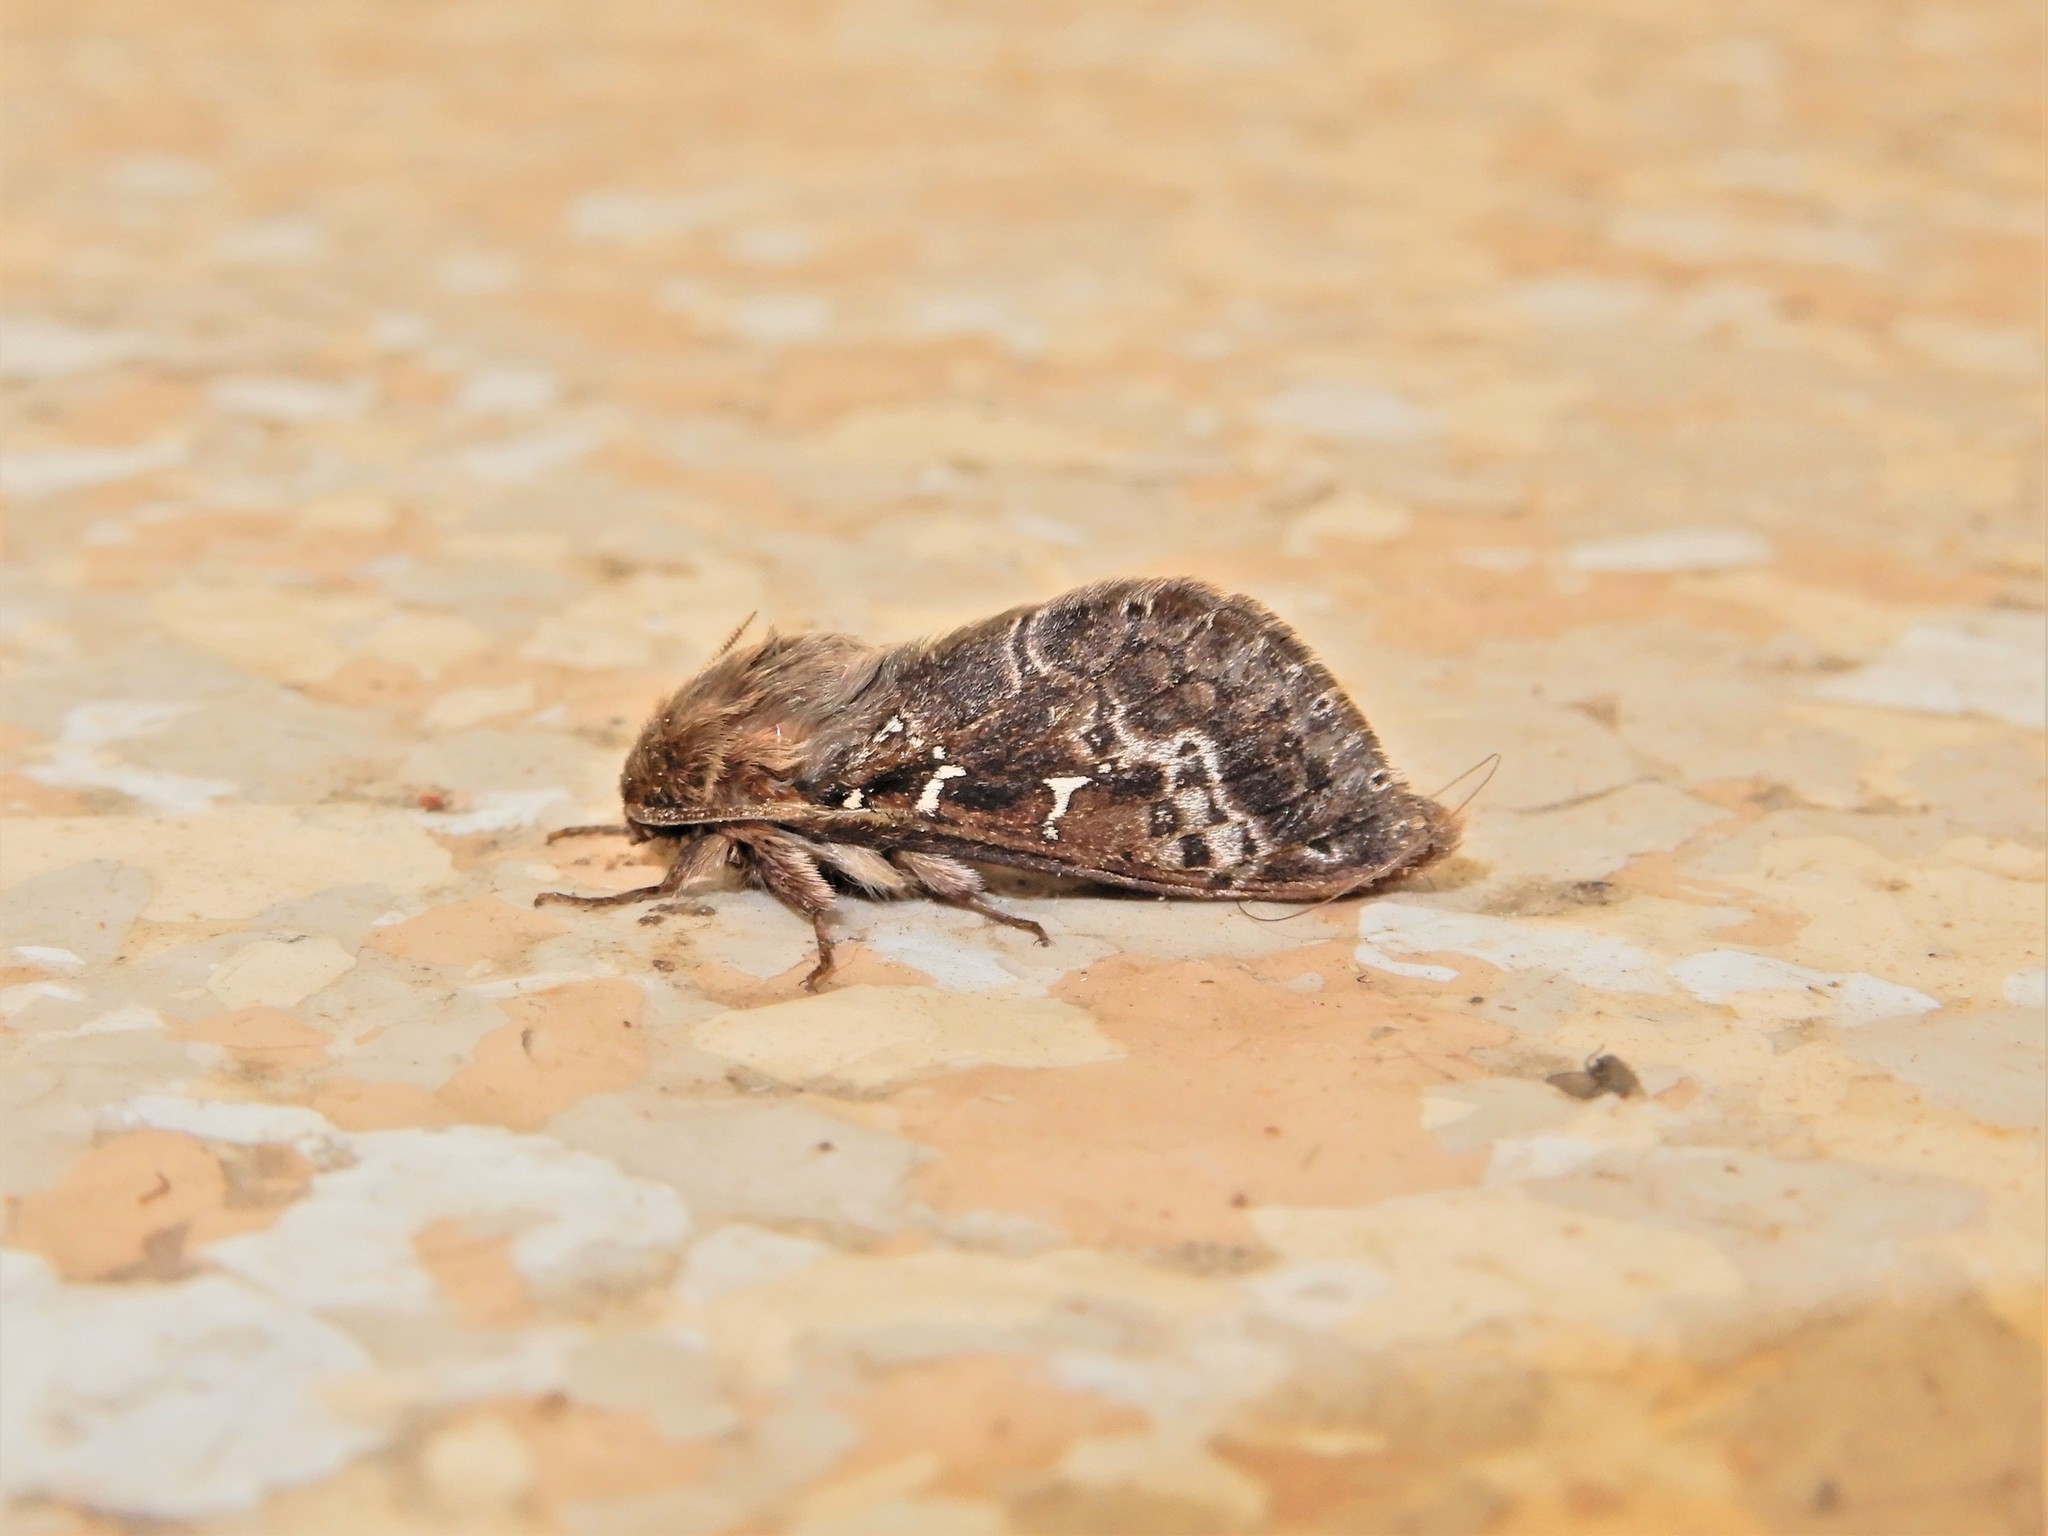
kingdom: Animalia
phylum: Arthropoda
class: Insecta
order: Lepidoptera
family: Hepialidae
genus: Wiseana
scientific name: Wiseana cervinata
